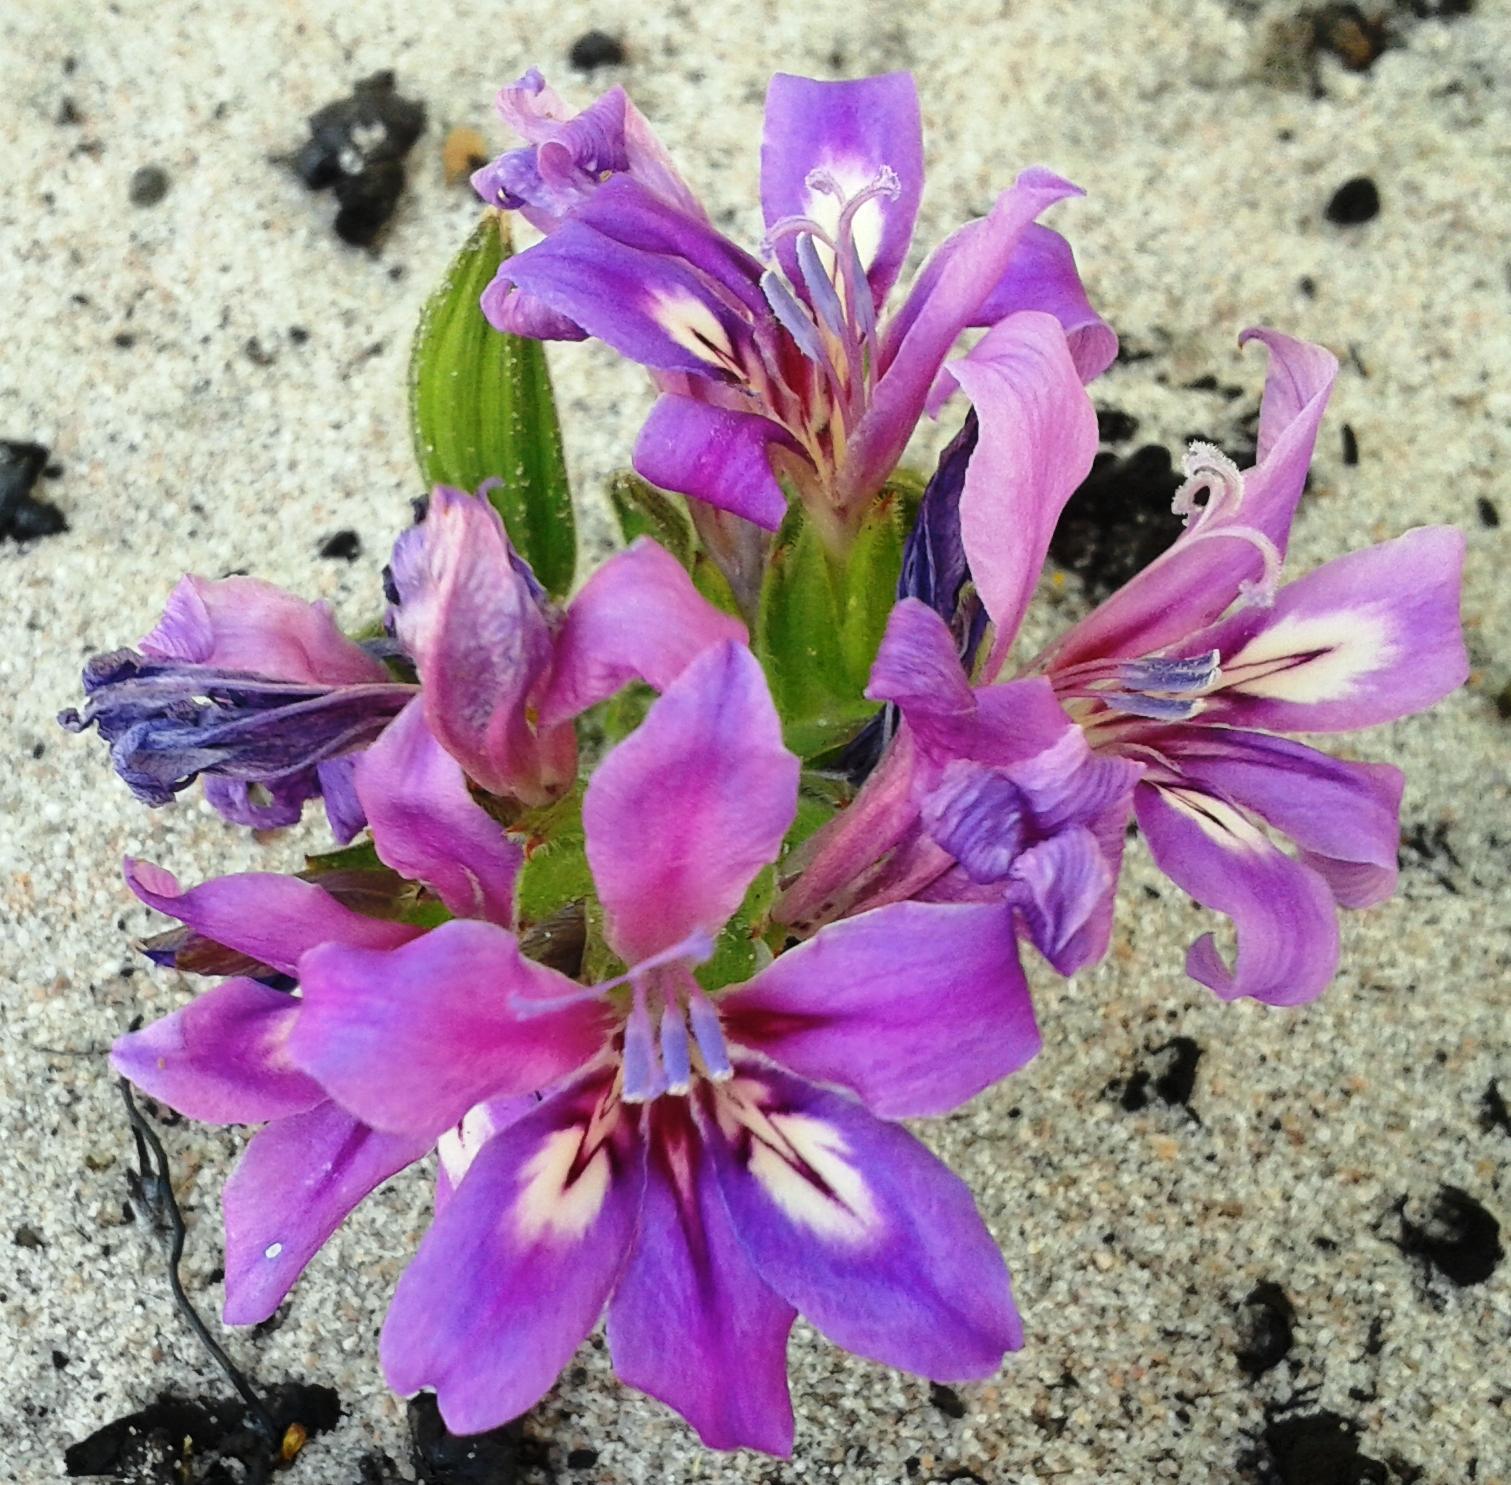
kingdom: Plantae
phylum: Tracheophyta
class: Liliopsida
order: Asparagales
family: Iridaceae
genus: Babiana
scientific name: Babiana nana
